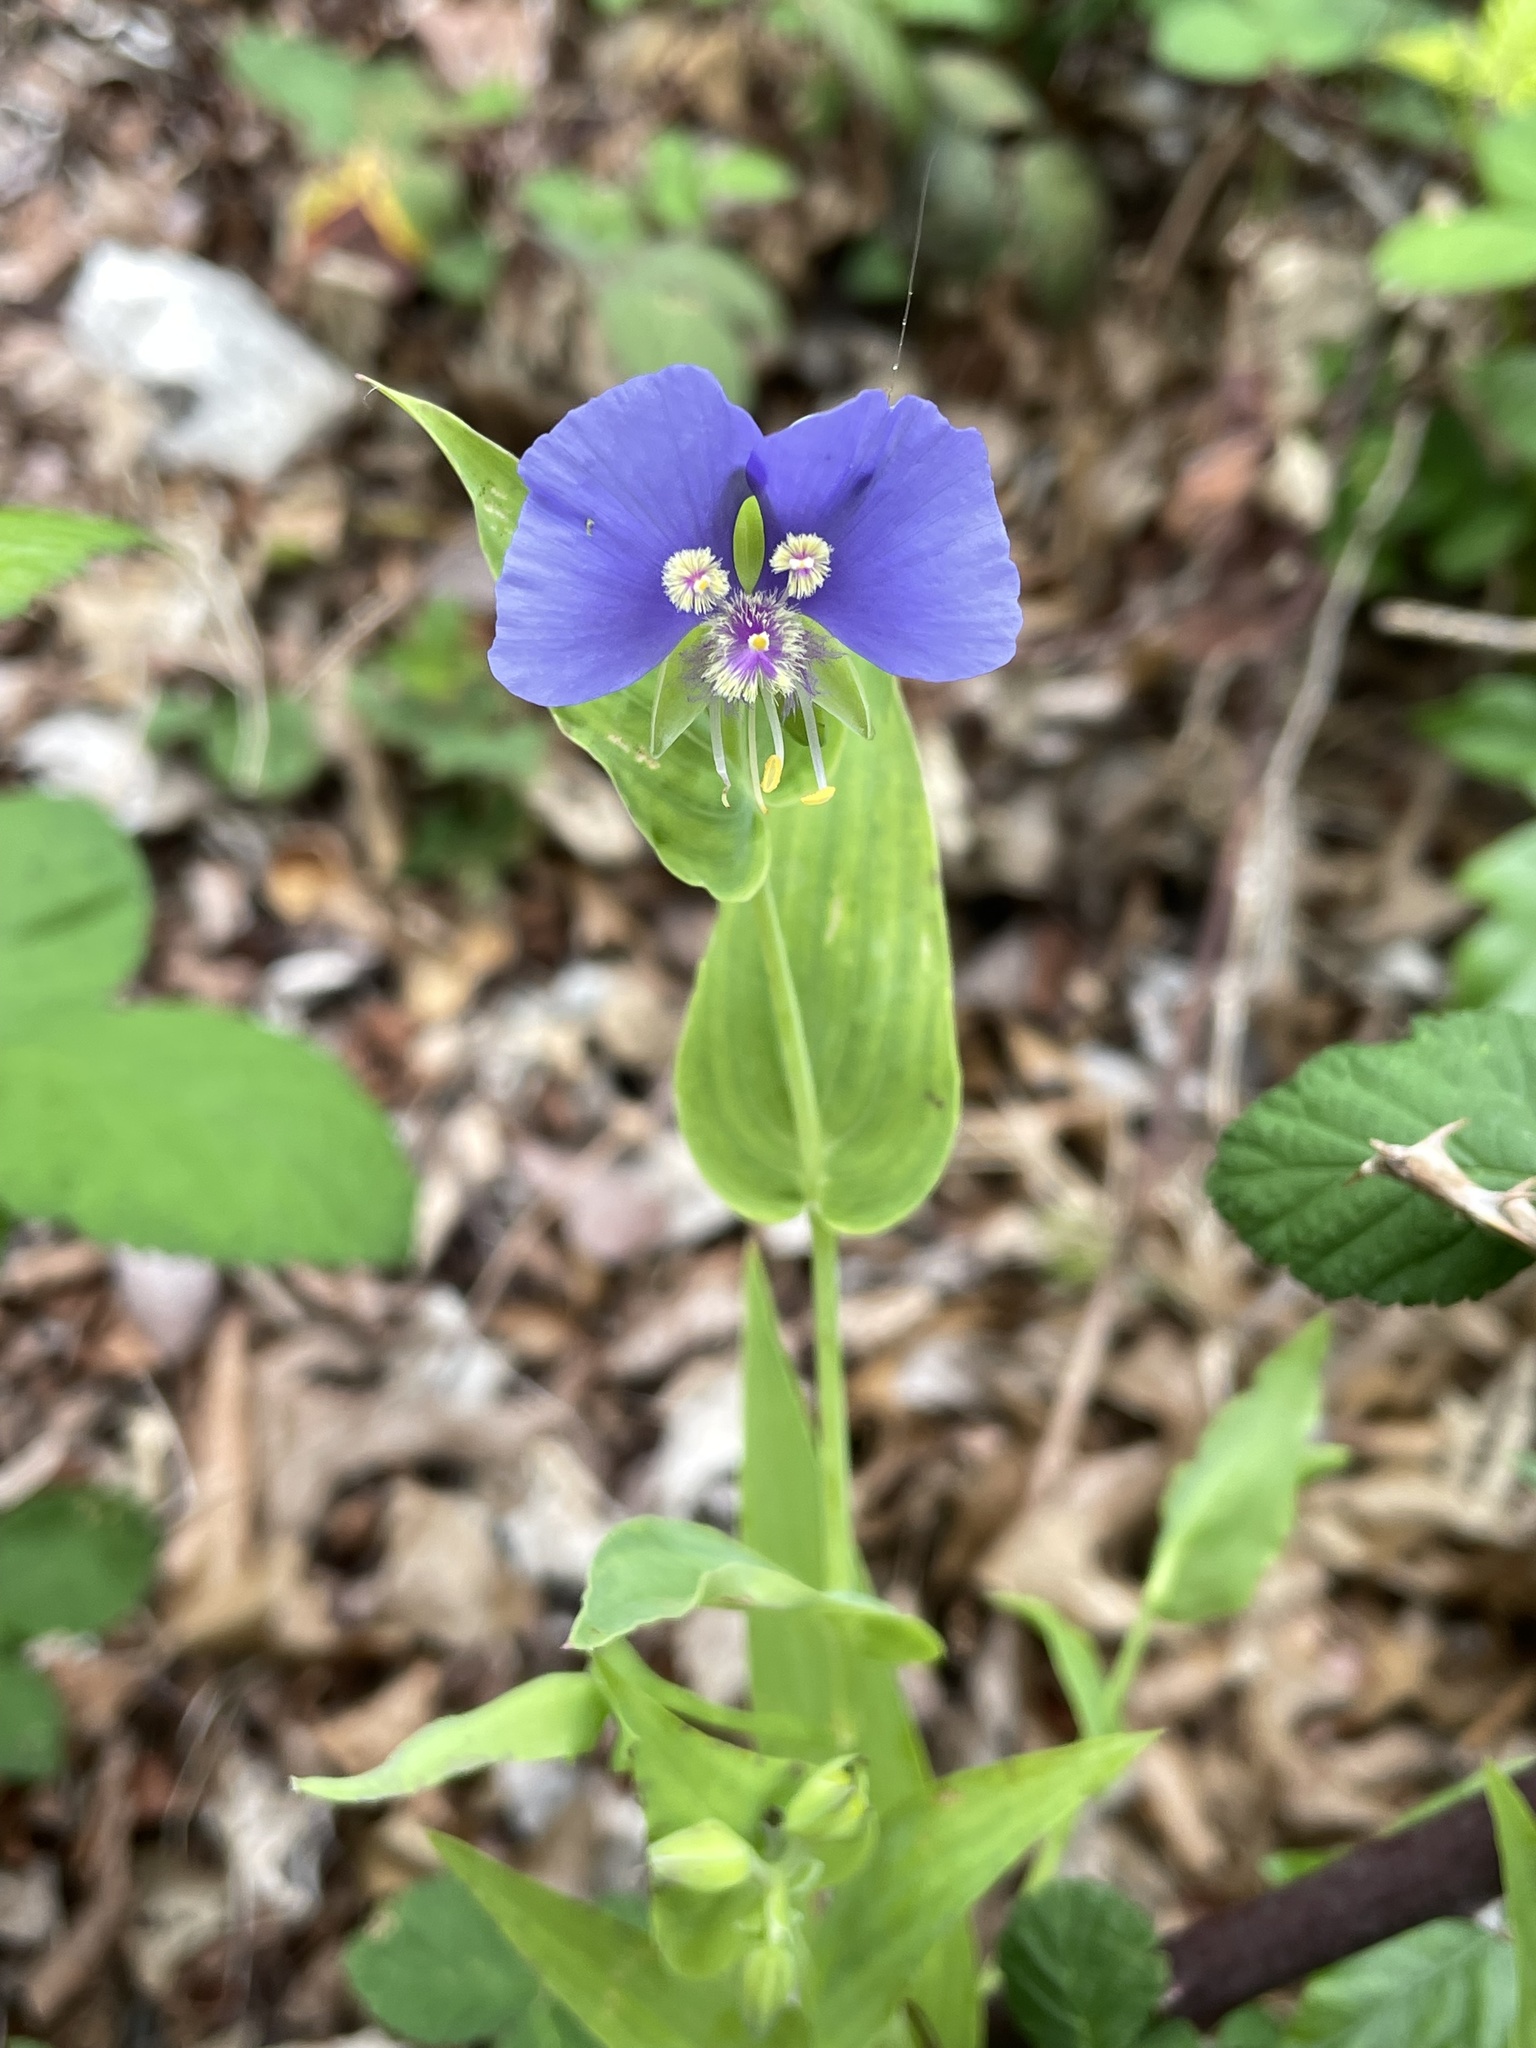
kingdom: Plantae
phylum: Tracheophyta
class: Liliopsida
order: Commelinales
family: Commelinaceae
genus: Tinantia
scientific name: Tinantia anomala
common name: False dayflower
